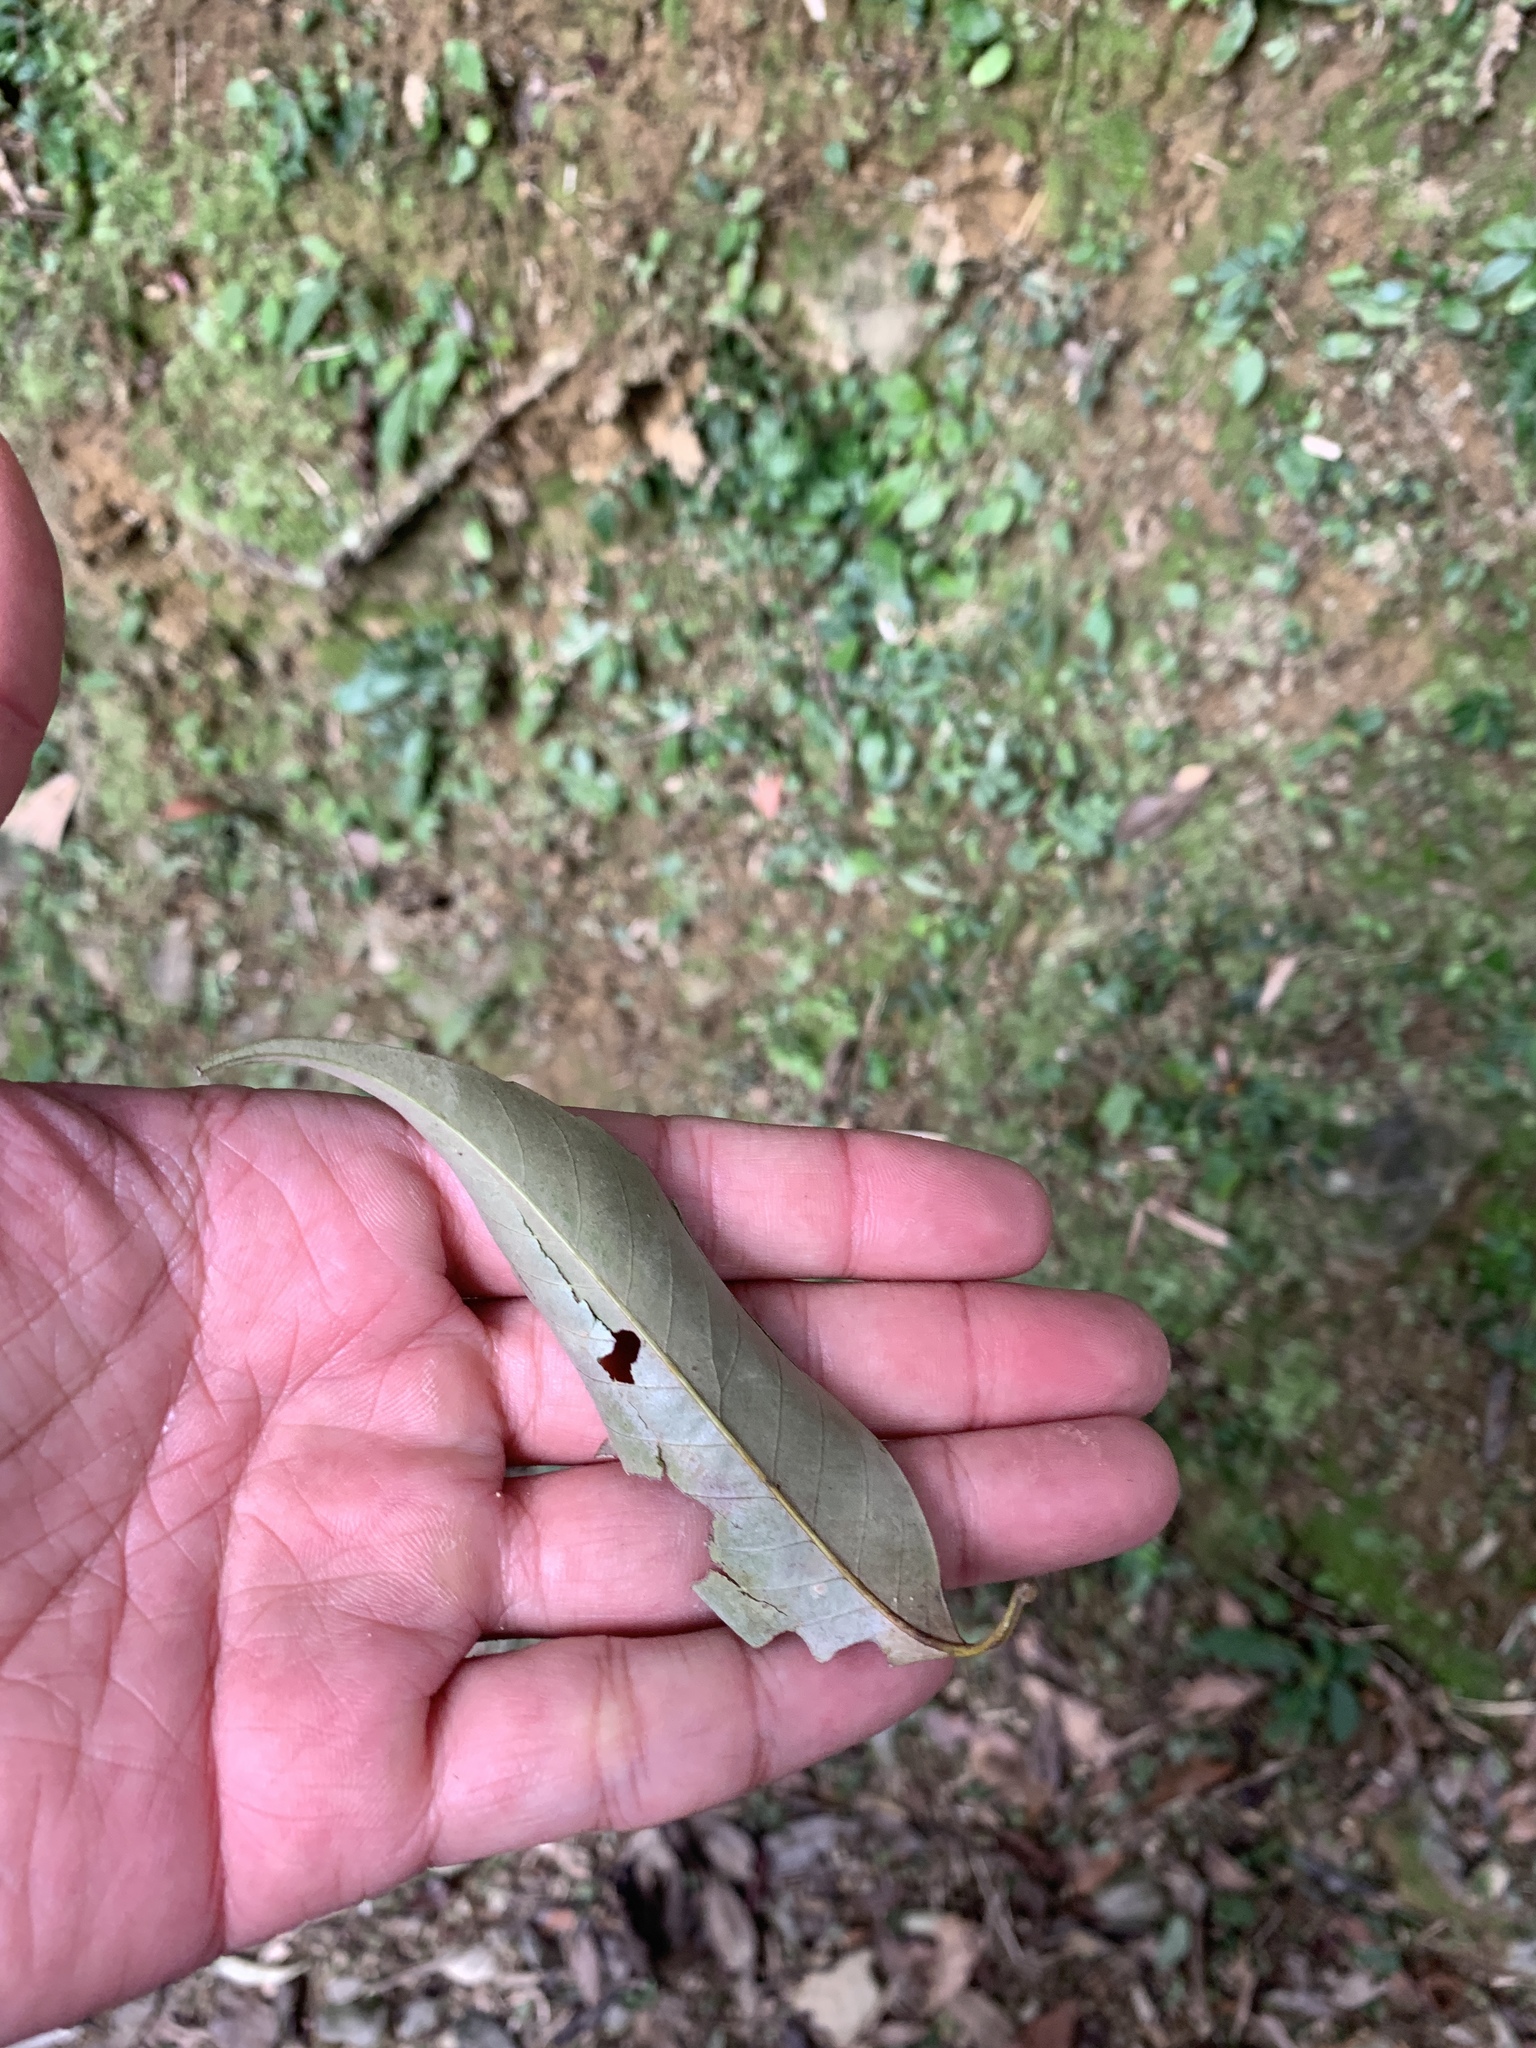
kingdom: Plantae
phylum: Tracheophyta
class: Magnoliopsida
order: Fagales
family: Fagaceae
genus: Castanopsis
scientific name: Castanopsis carlesii
